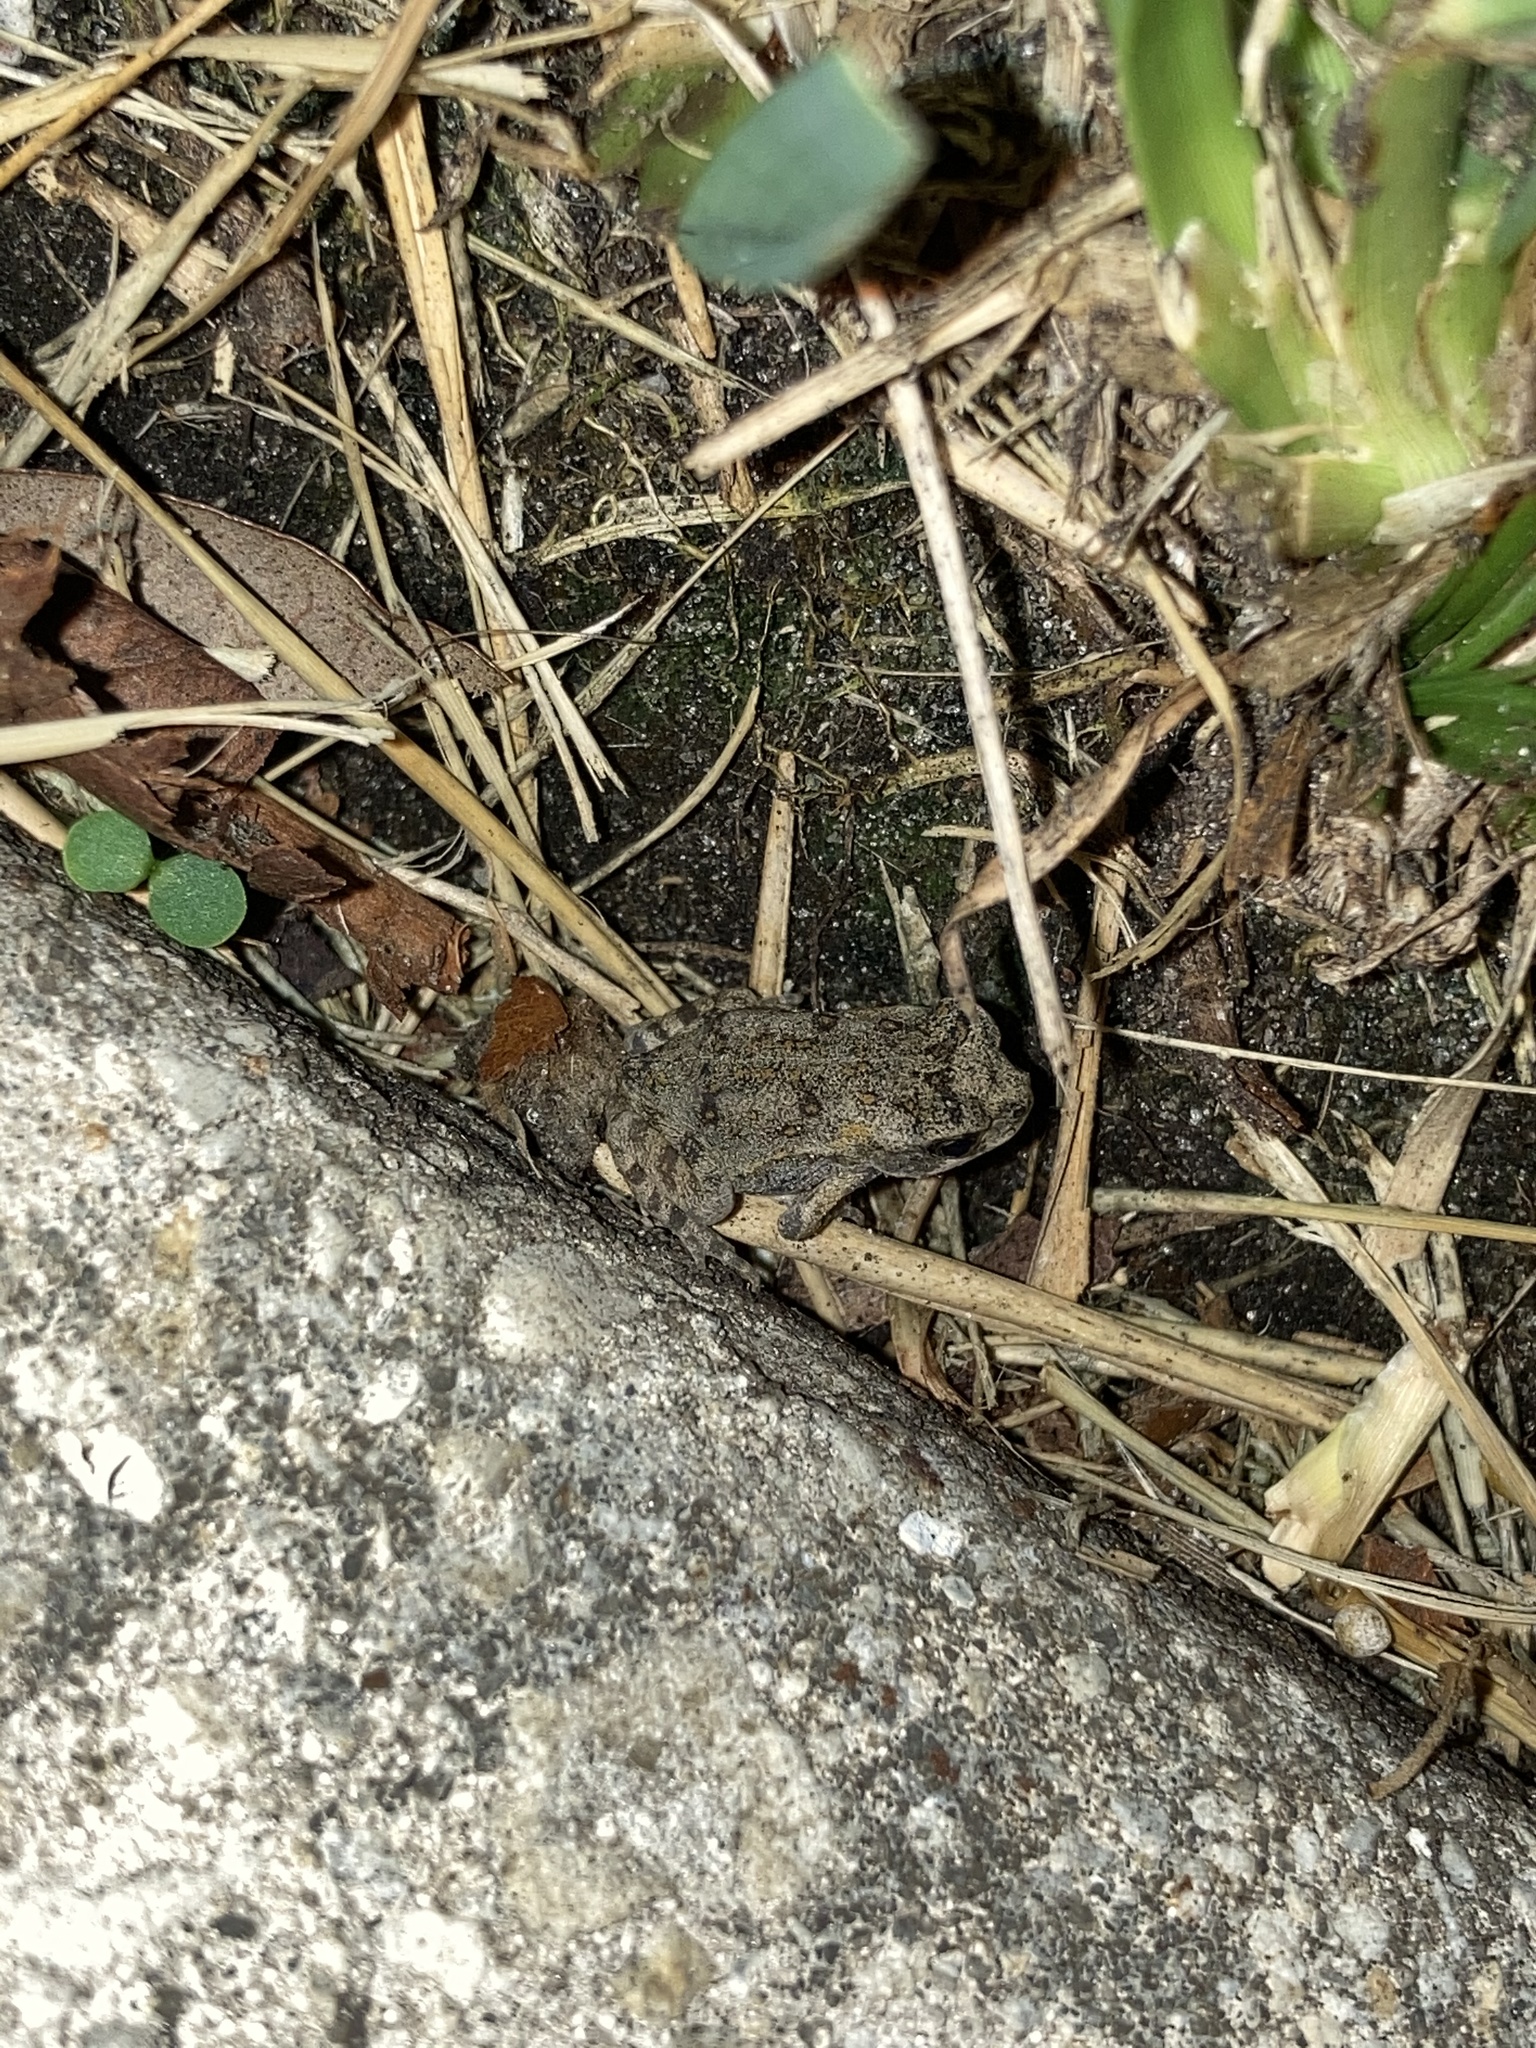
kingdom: Animalia
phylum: Chordata
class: Amphibia
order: Anura
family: Bufonidae
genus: Rhinella
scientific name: Rhinella marina
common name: Cane toad
